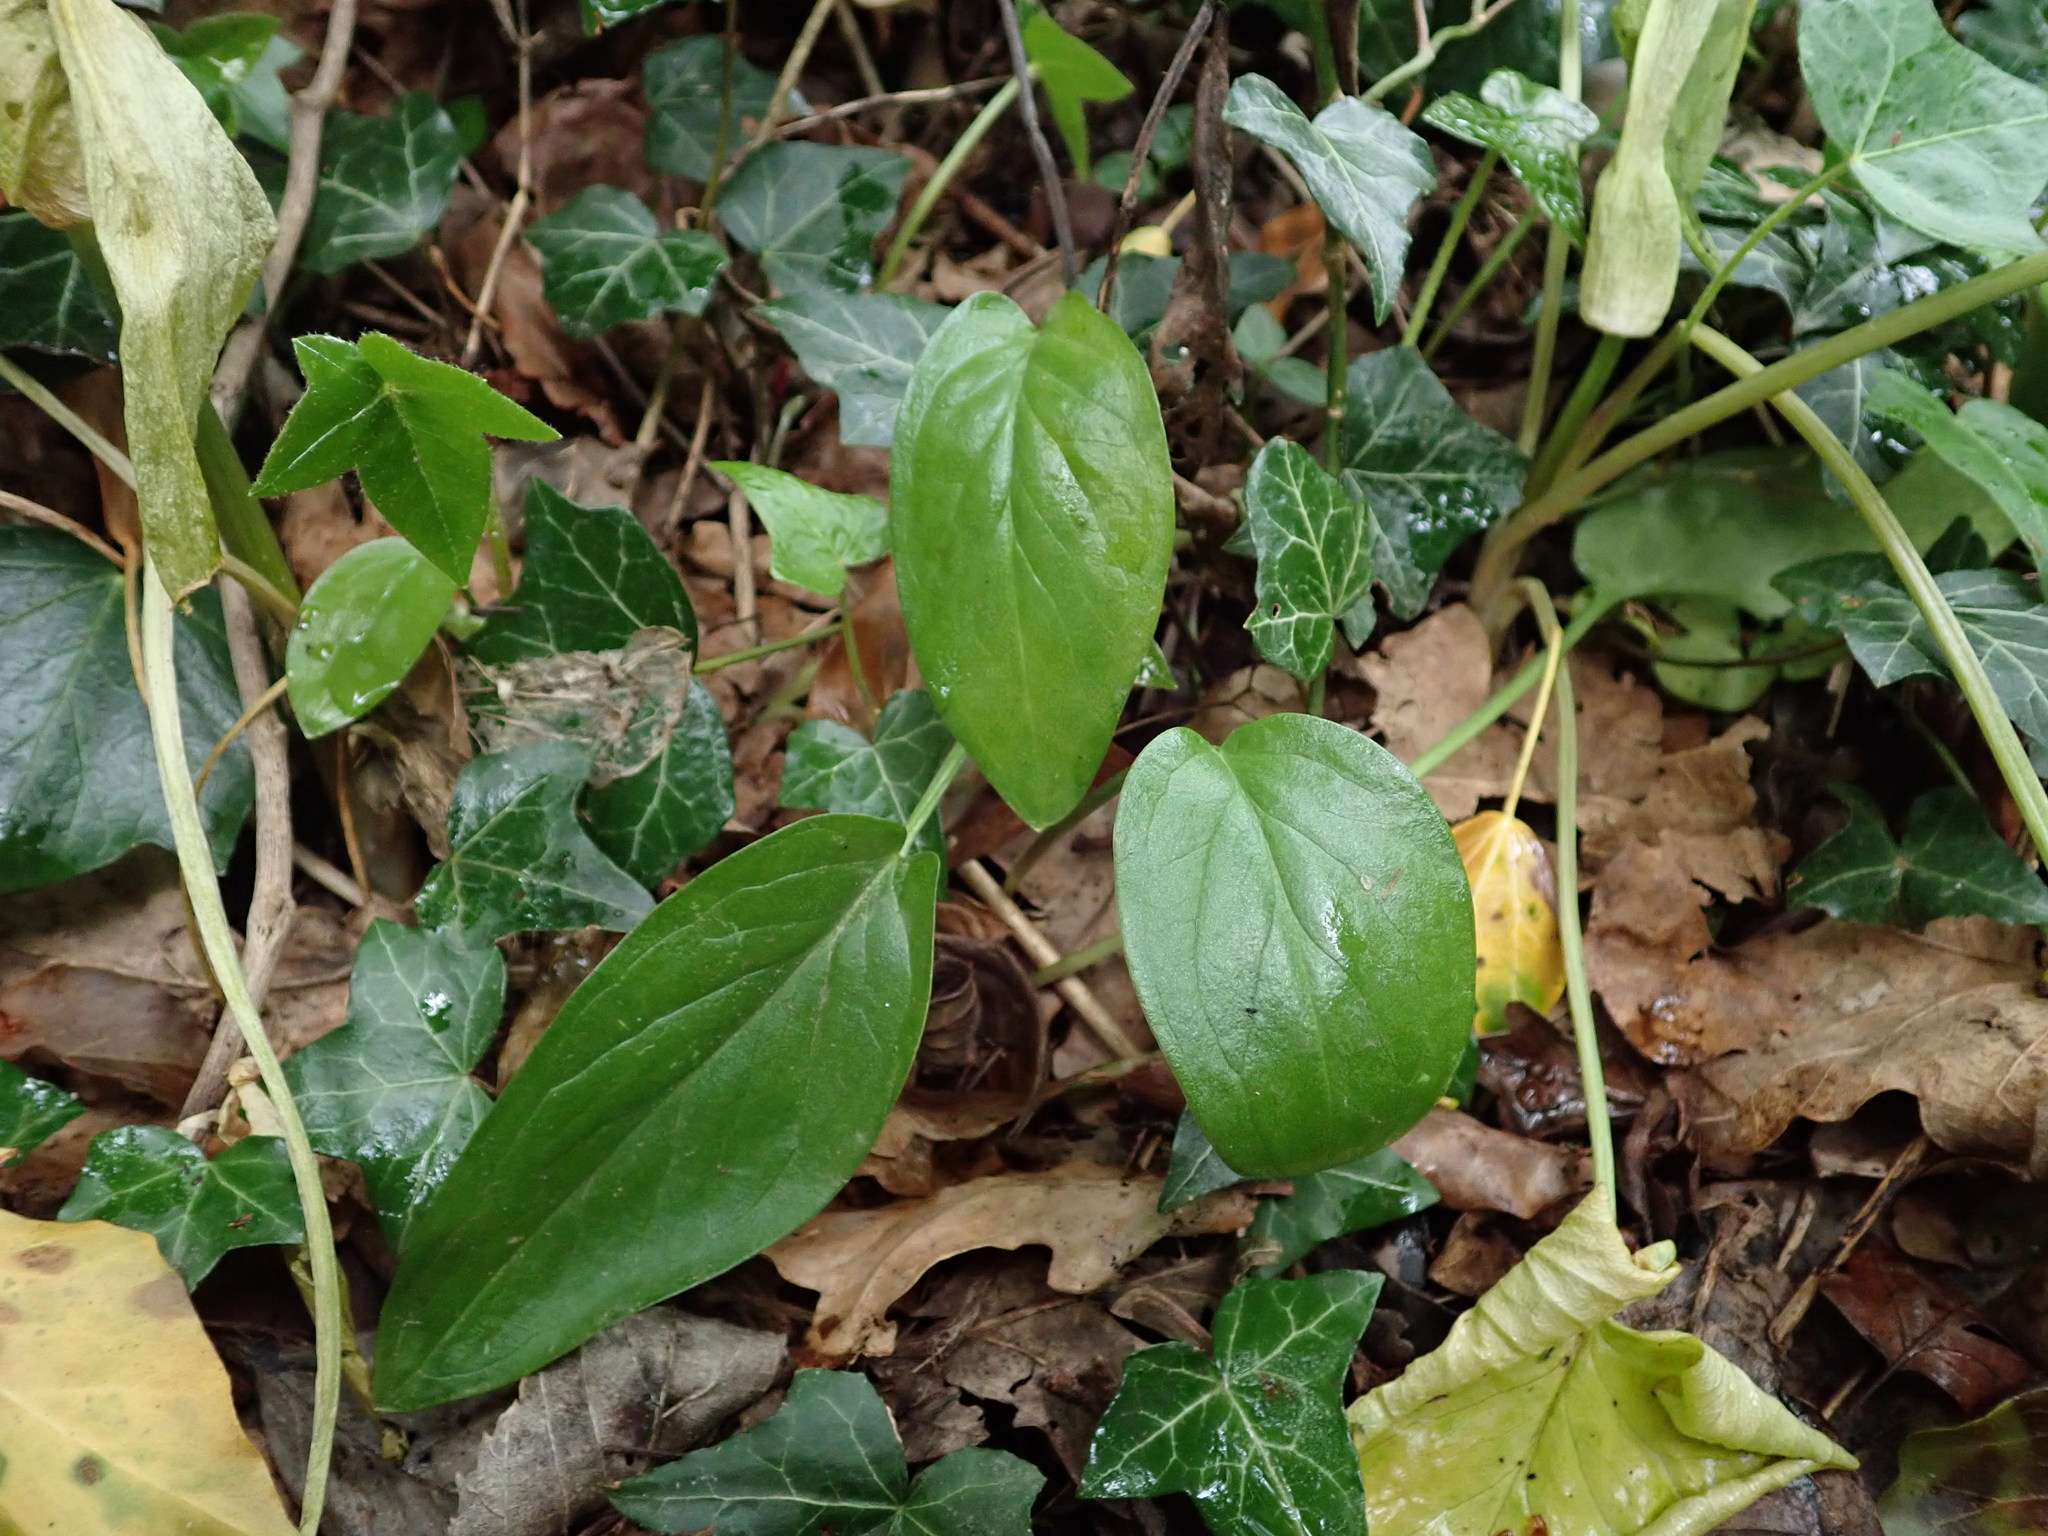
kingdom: Plantae
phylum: Tracheophyta
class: Liliopsida
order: Alismatales
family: Araceae
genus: Arum
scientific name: Arum maculatum
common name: Lords-and-ladies
